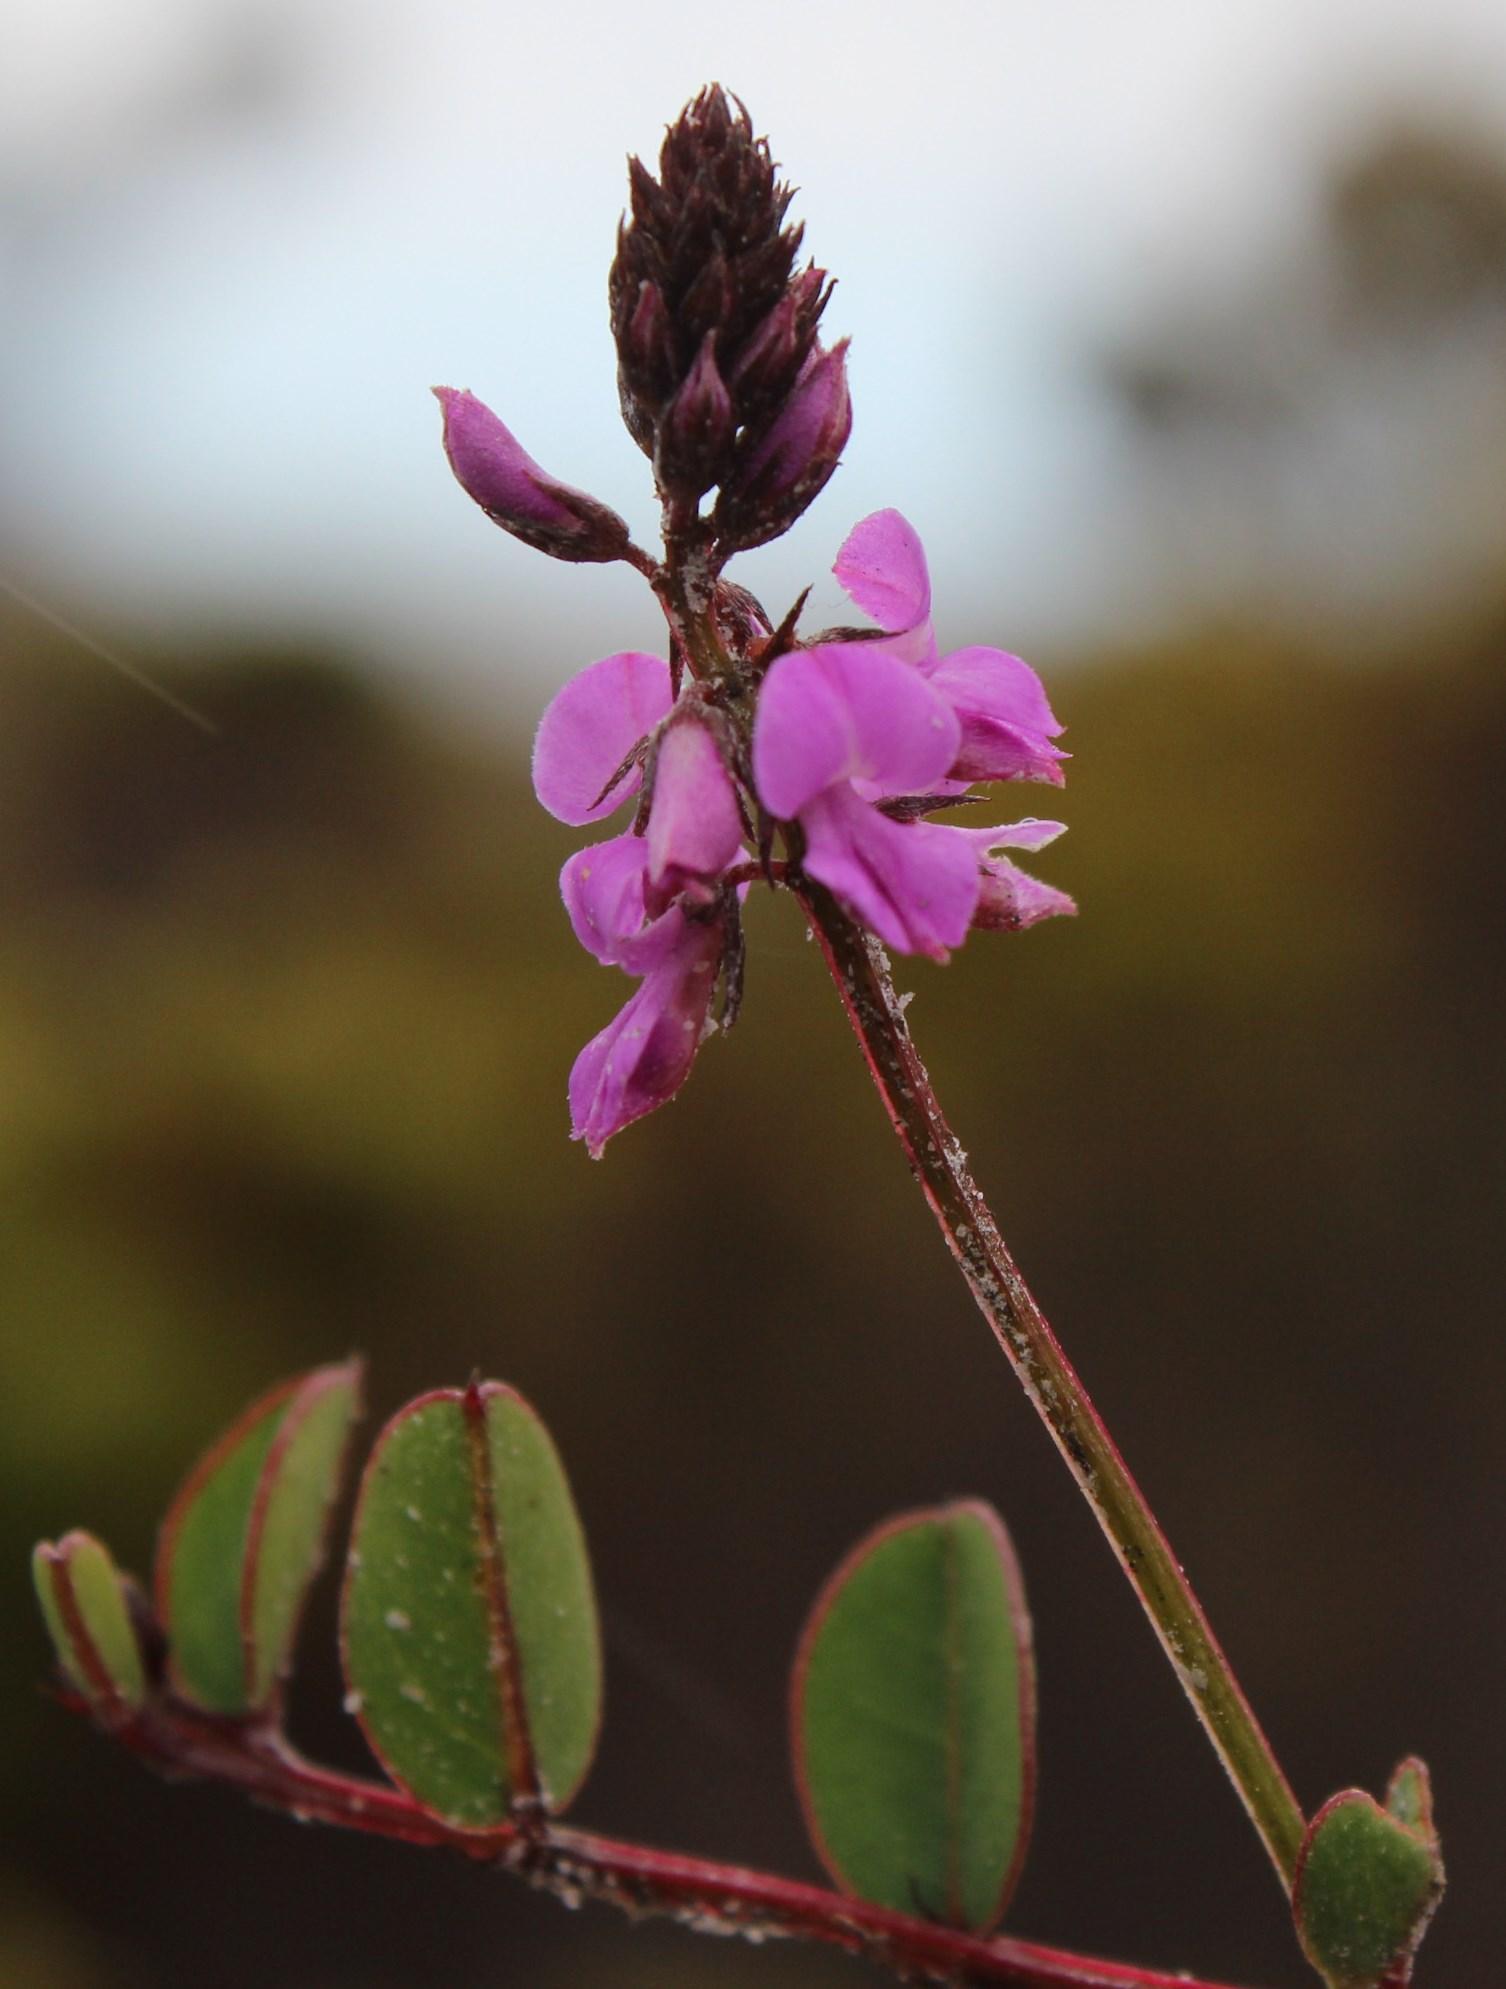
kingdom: Plantae
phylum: Tracheophyta
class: Magnoliopsida
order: Fabales
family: Fabaceae
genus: Indigofera
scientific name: Indigofera ovata
